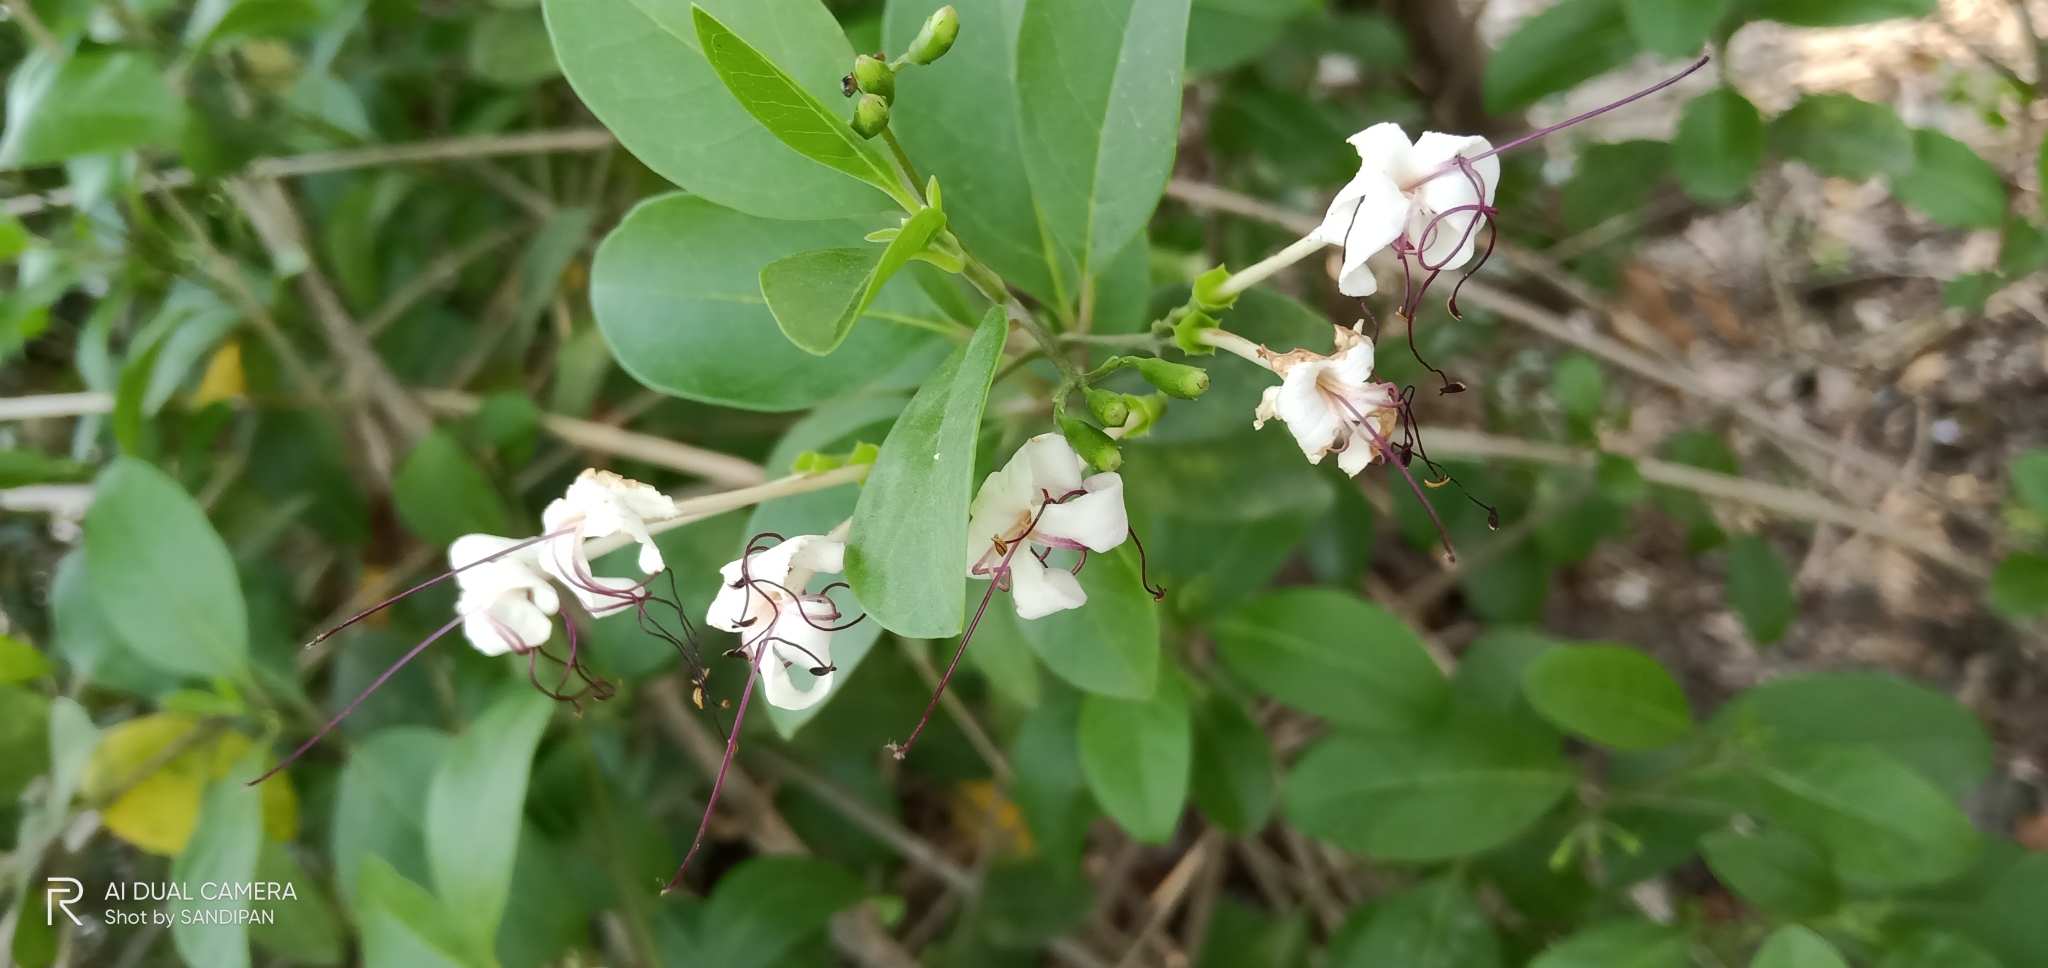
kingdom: Plantae
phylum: Tracheophyta
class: Magnoliopsida
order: Lamiales
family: Lamiaceae
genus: Volkameria
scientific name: Volkameria inermis
